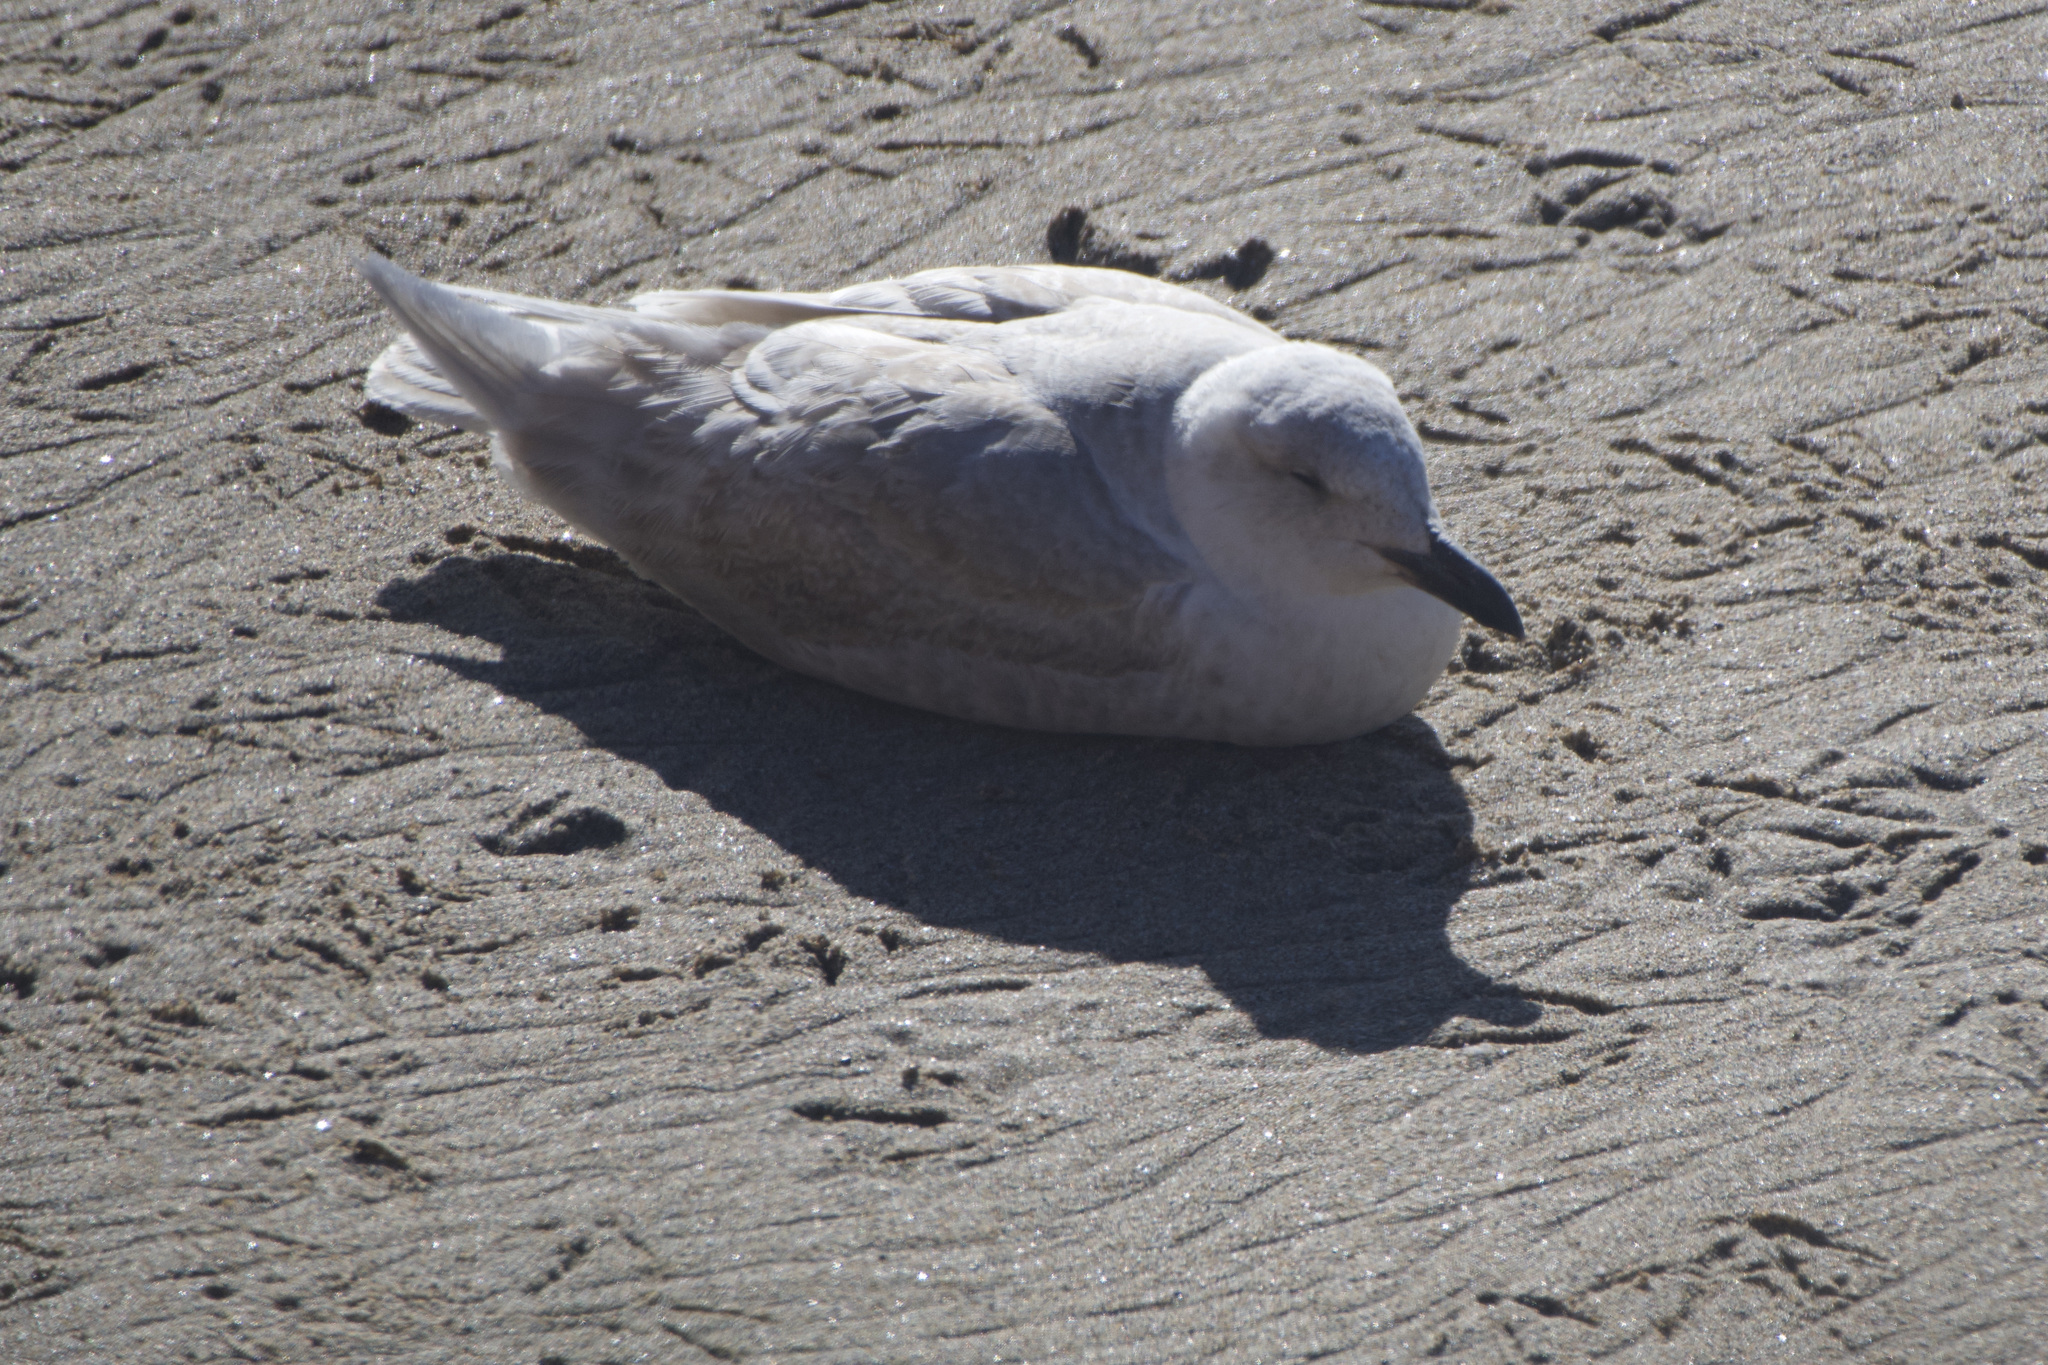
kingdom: Animalia
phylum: Chordata
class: Aves
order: Charadriiformes
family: Laridae
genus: Larus
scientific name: Larus glaucescens
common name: Glaucous-winged gull
